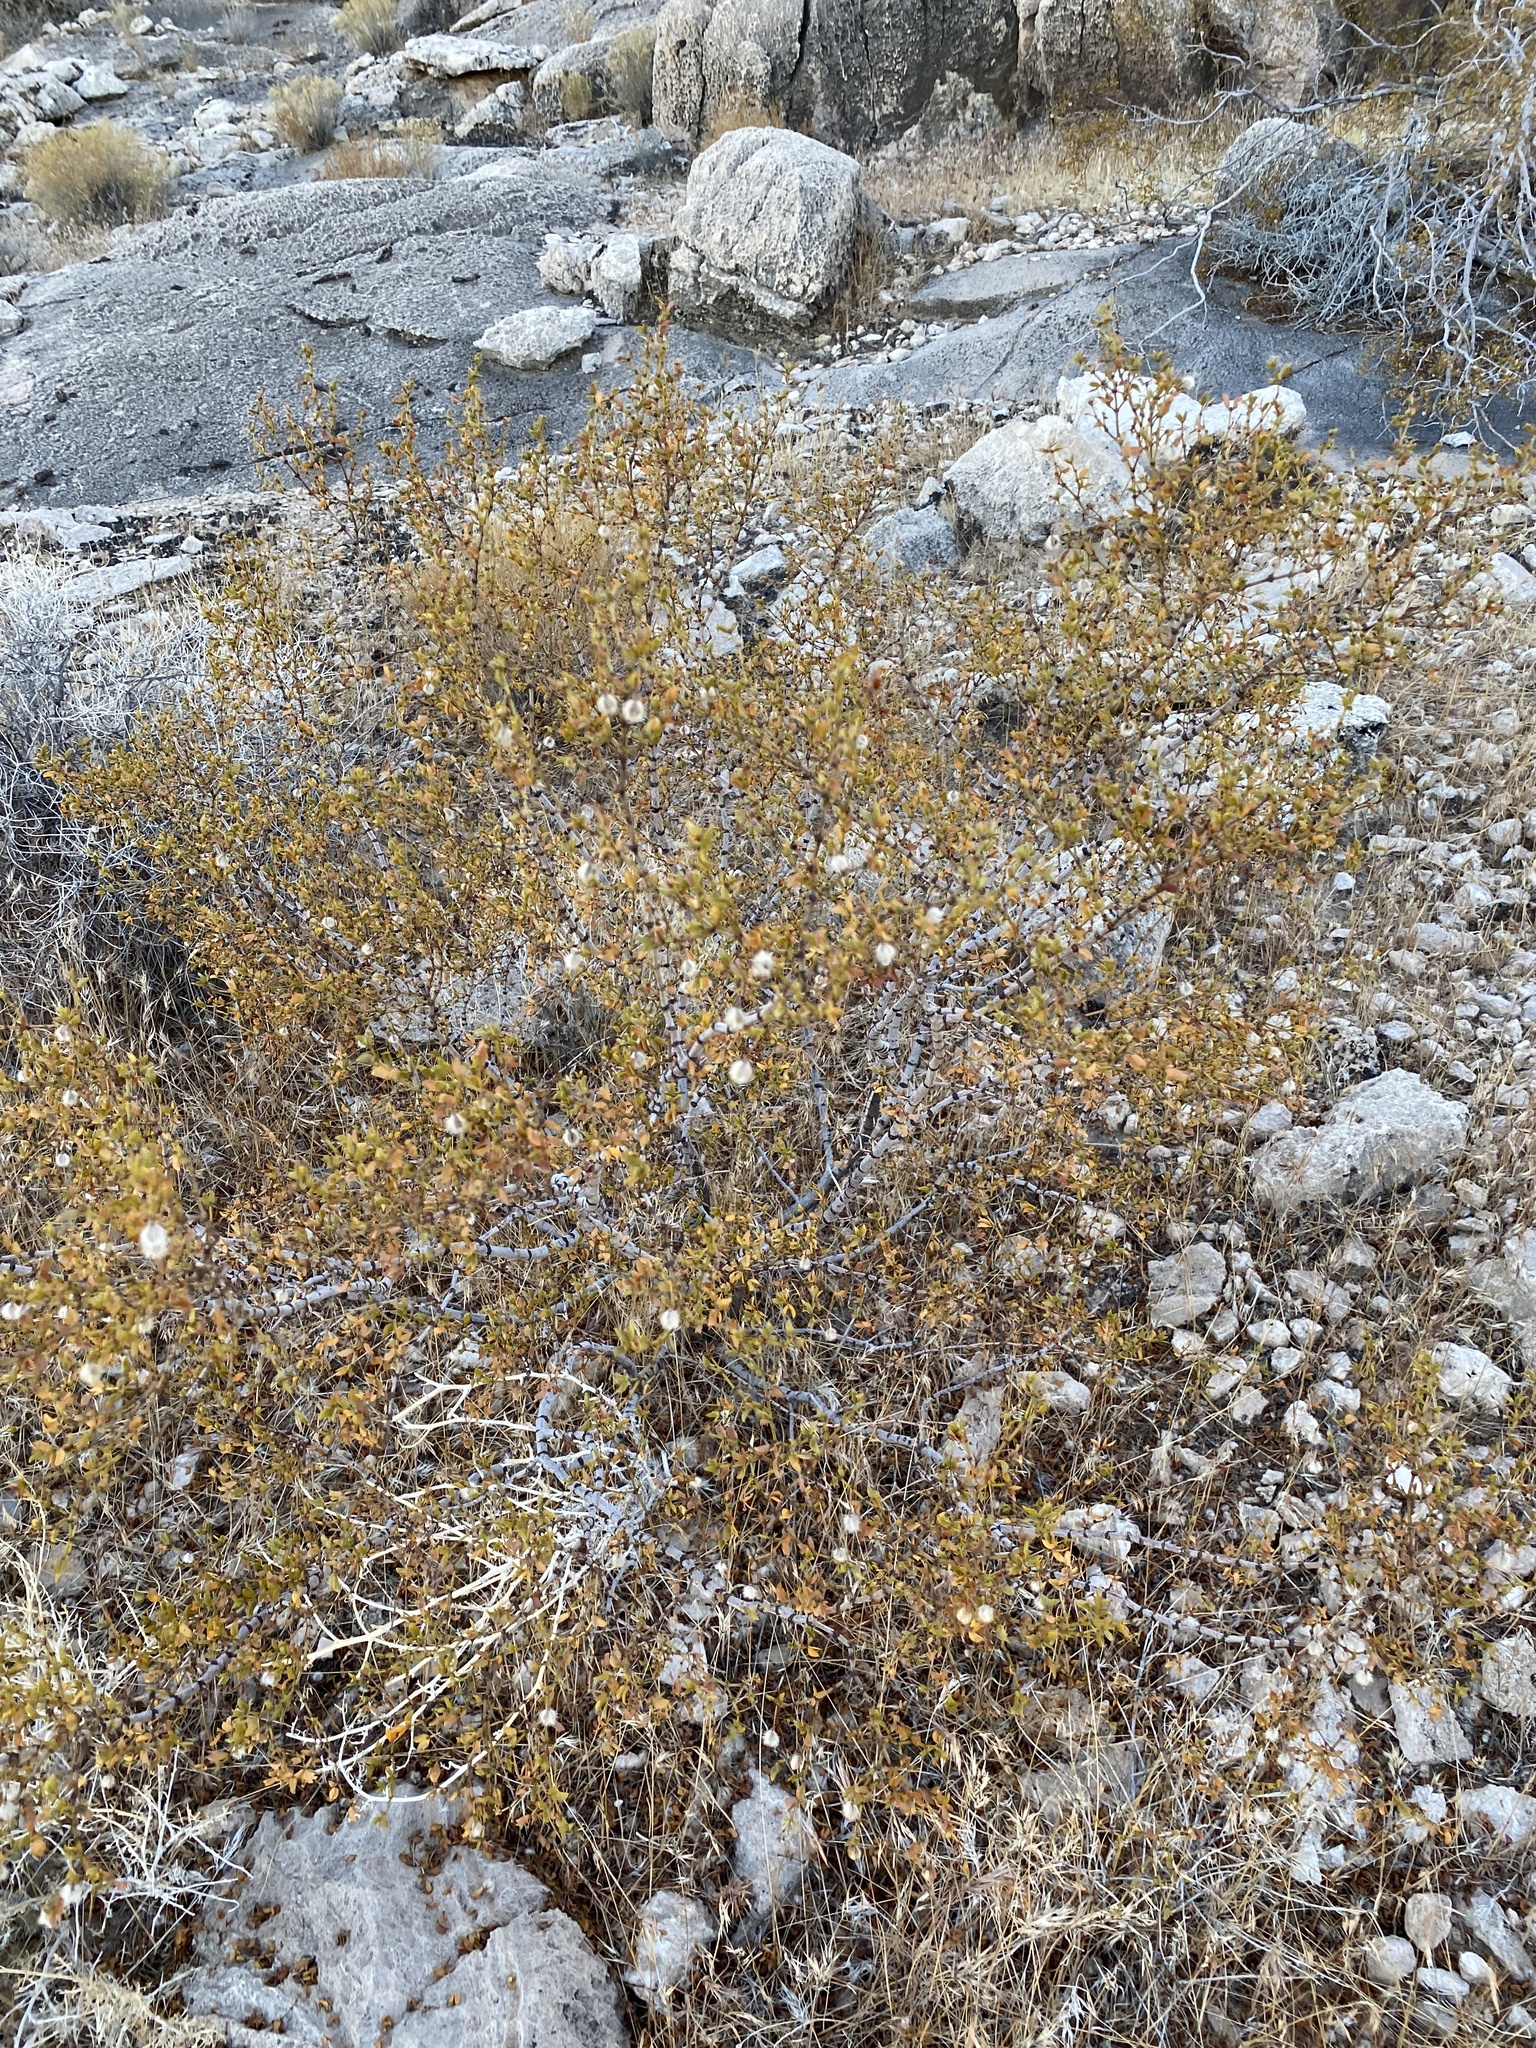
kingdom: Plantae
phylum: Tracheophyta
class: Magnoliopsida
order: Zygophyllales
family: Zygophyllaceae
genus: Larrea
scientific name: Larrea tridentata
